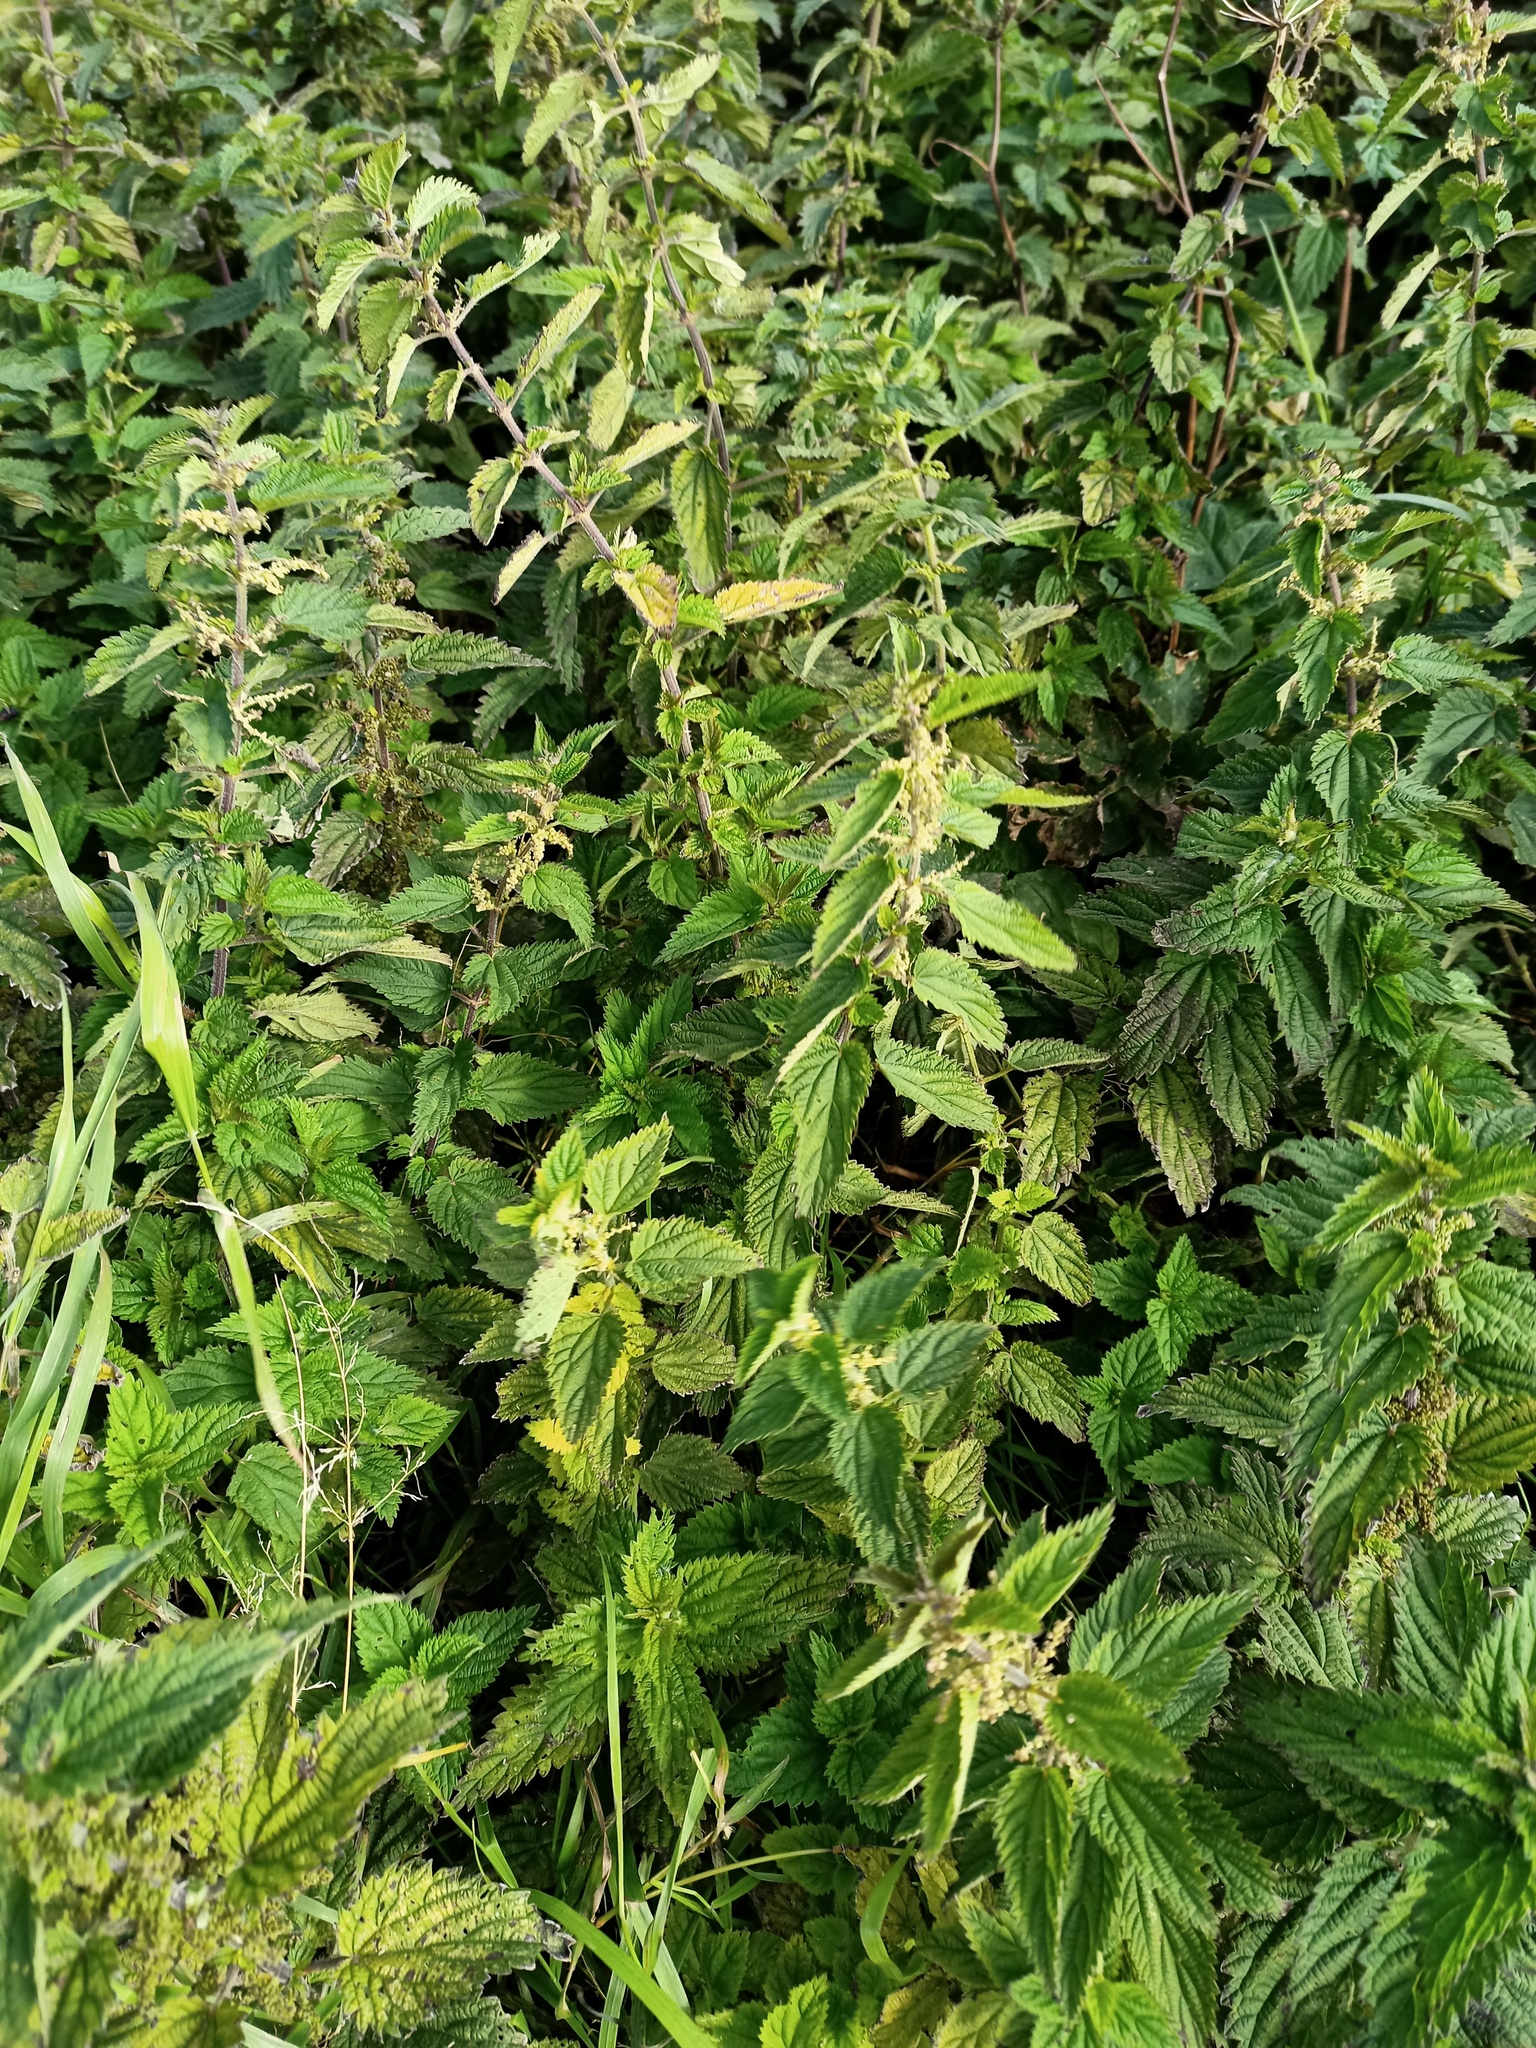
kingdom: Plantae
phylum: Tracheophyta
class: Magnoliopsida
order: Rosales
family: Urticaceae
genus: Urtica
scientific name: Urtica dioica
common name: Common nettle
